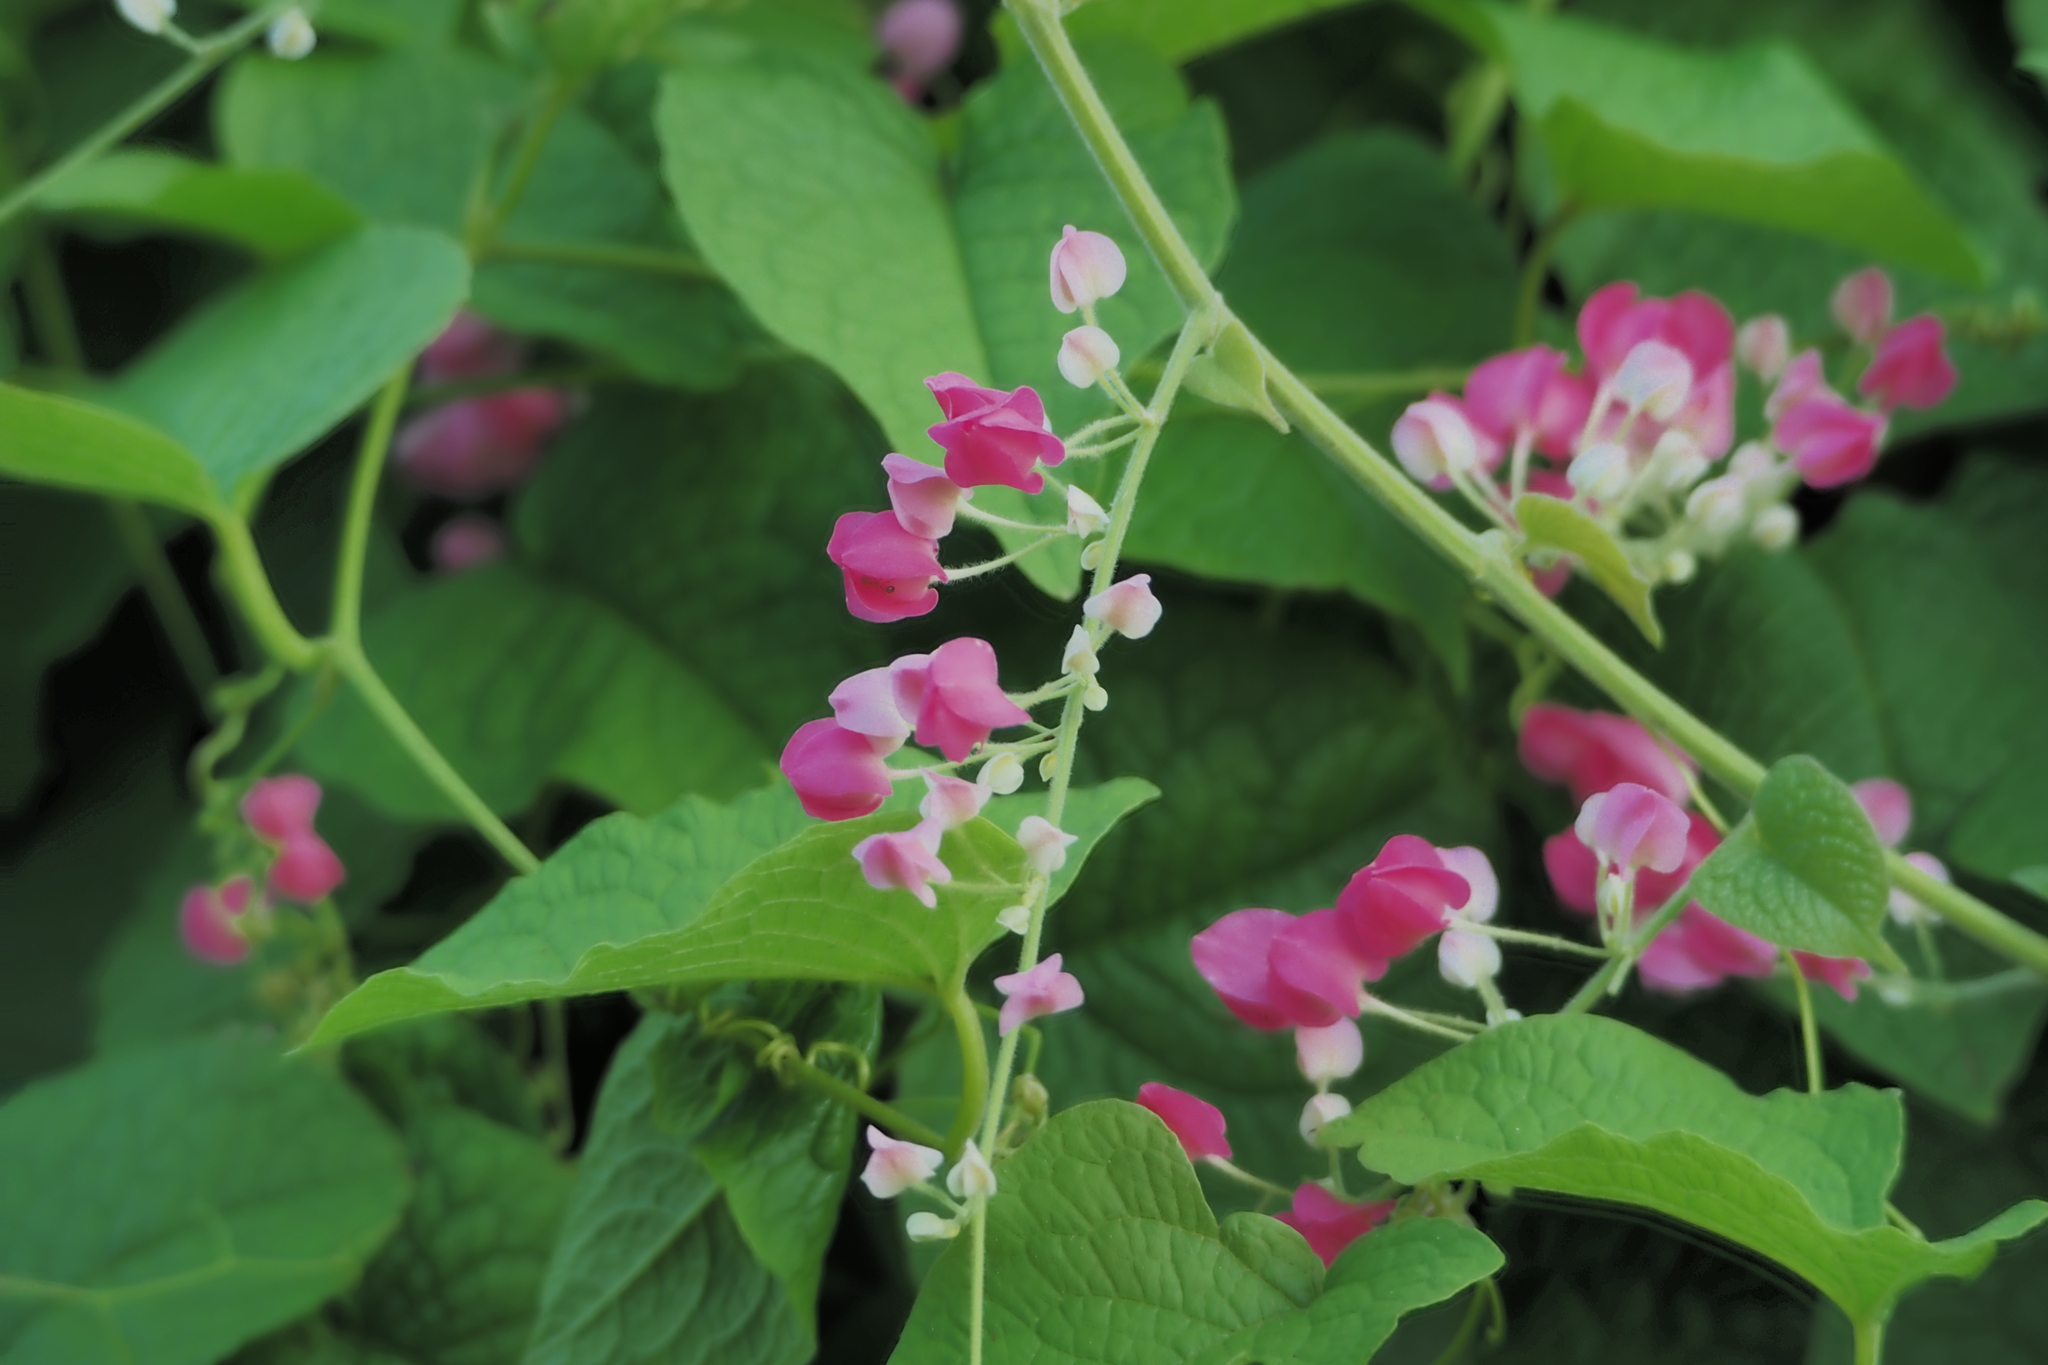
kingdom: Plantae
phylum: Tracheophyta
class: Magnoliopsida
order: Caryophyllales
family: Polygonaceae
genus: Antigonon
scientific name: Antigonon leptopus
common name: Coral vine
